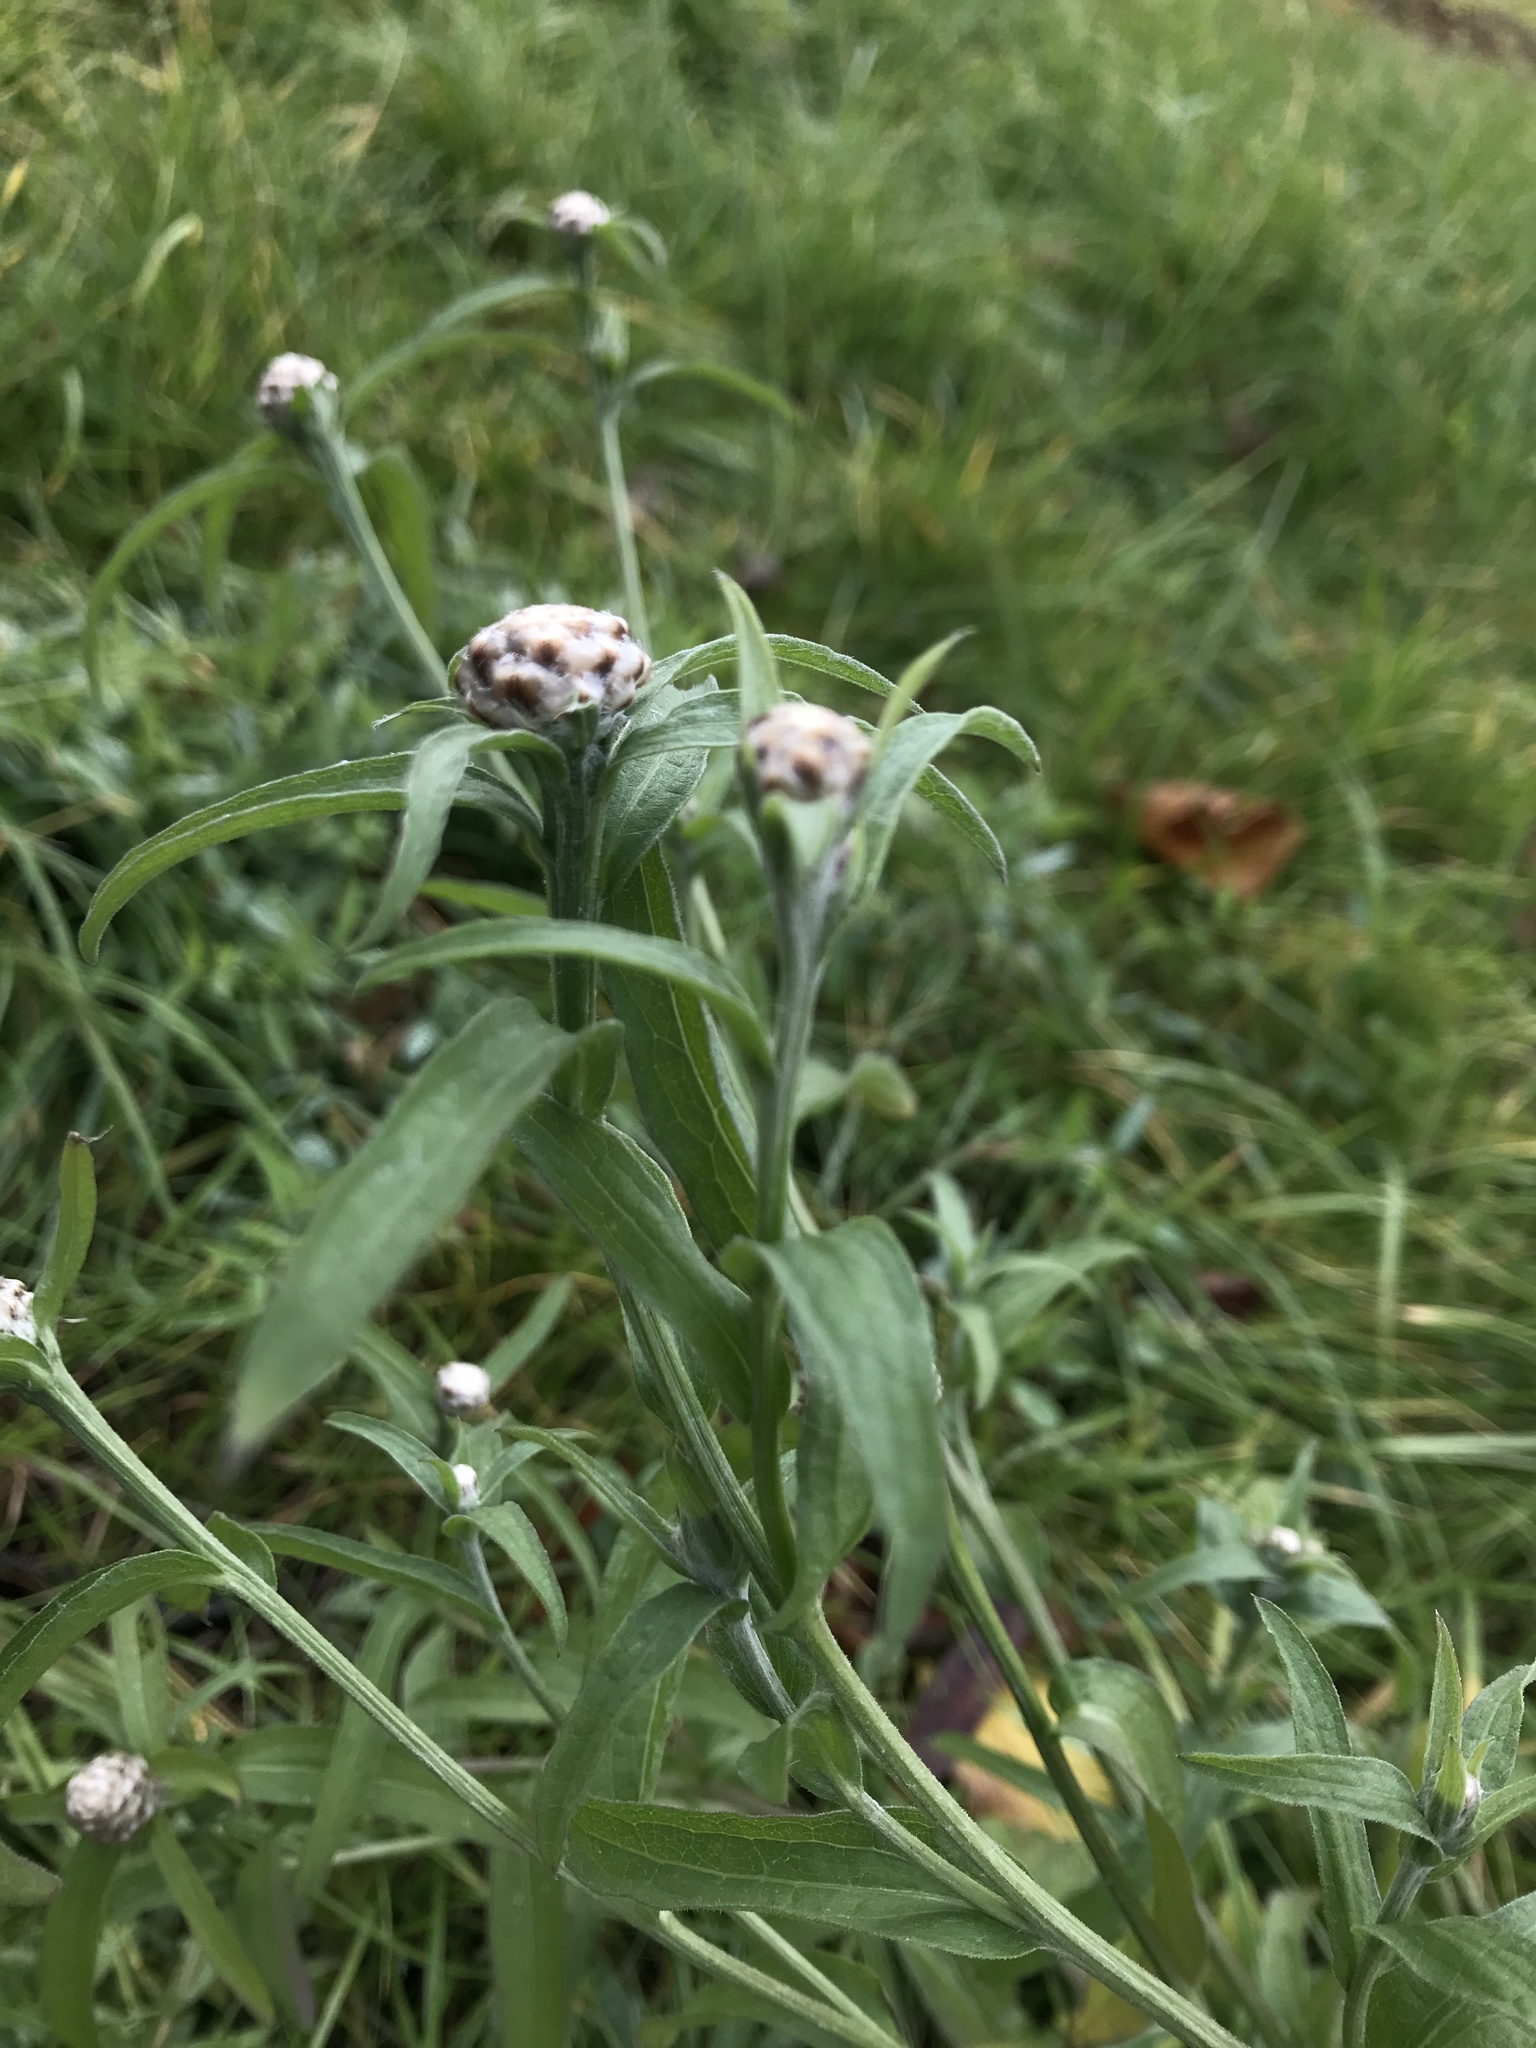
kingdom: Plantae
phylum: Tracheophyta
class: Magnoliopsida
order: Asterales
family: Asteraceae
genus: Centaurea
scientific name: Centaurea jacea
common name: Brown knapweed
